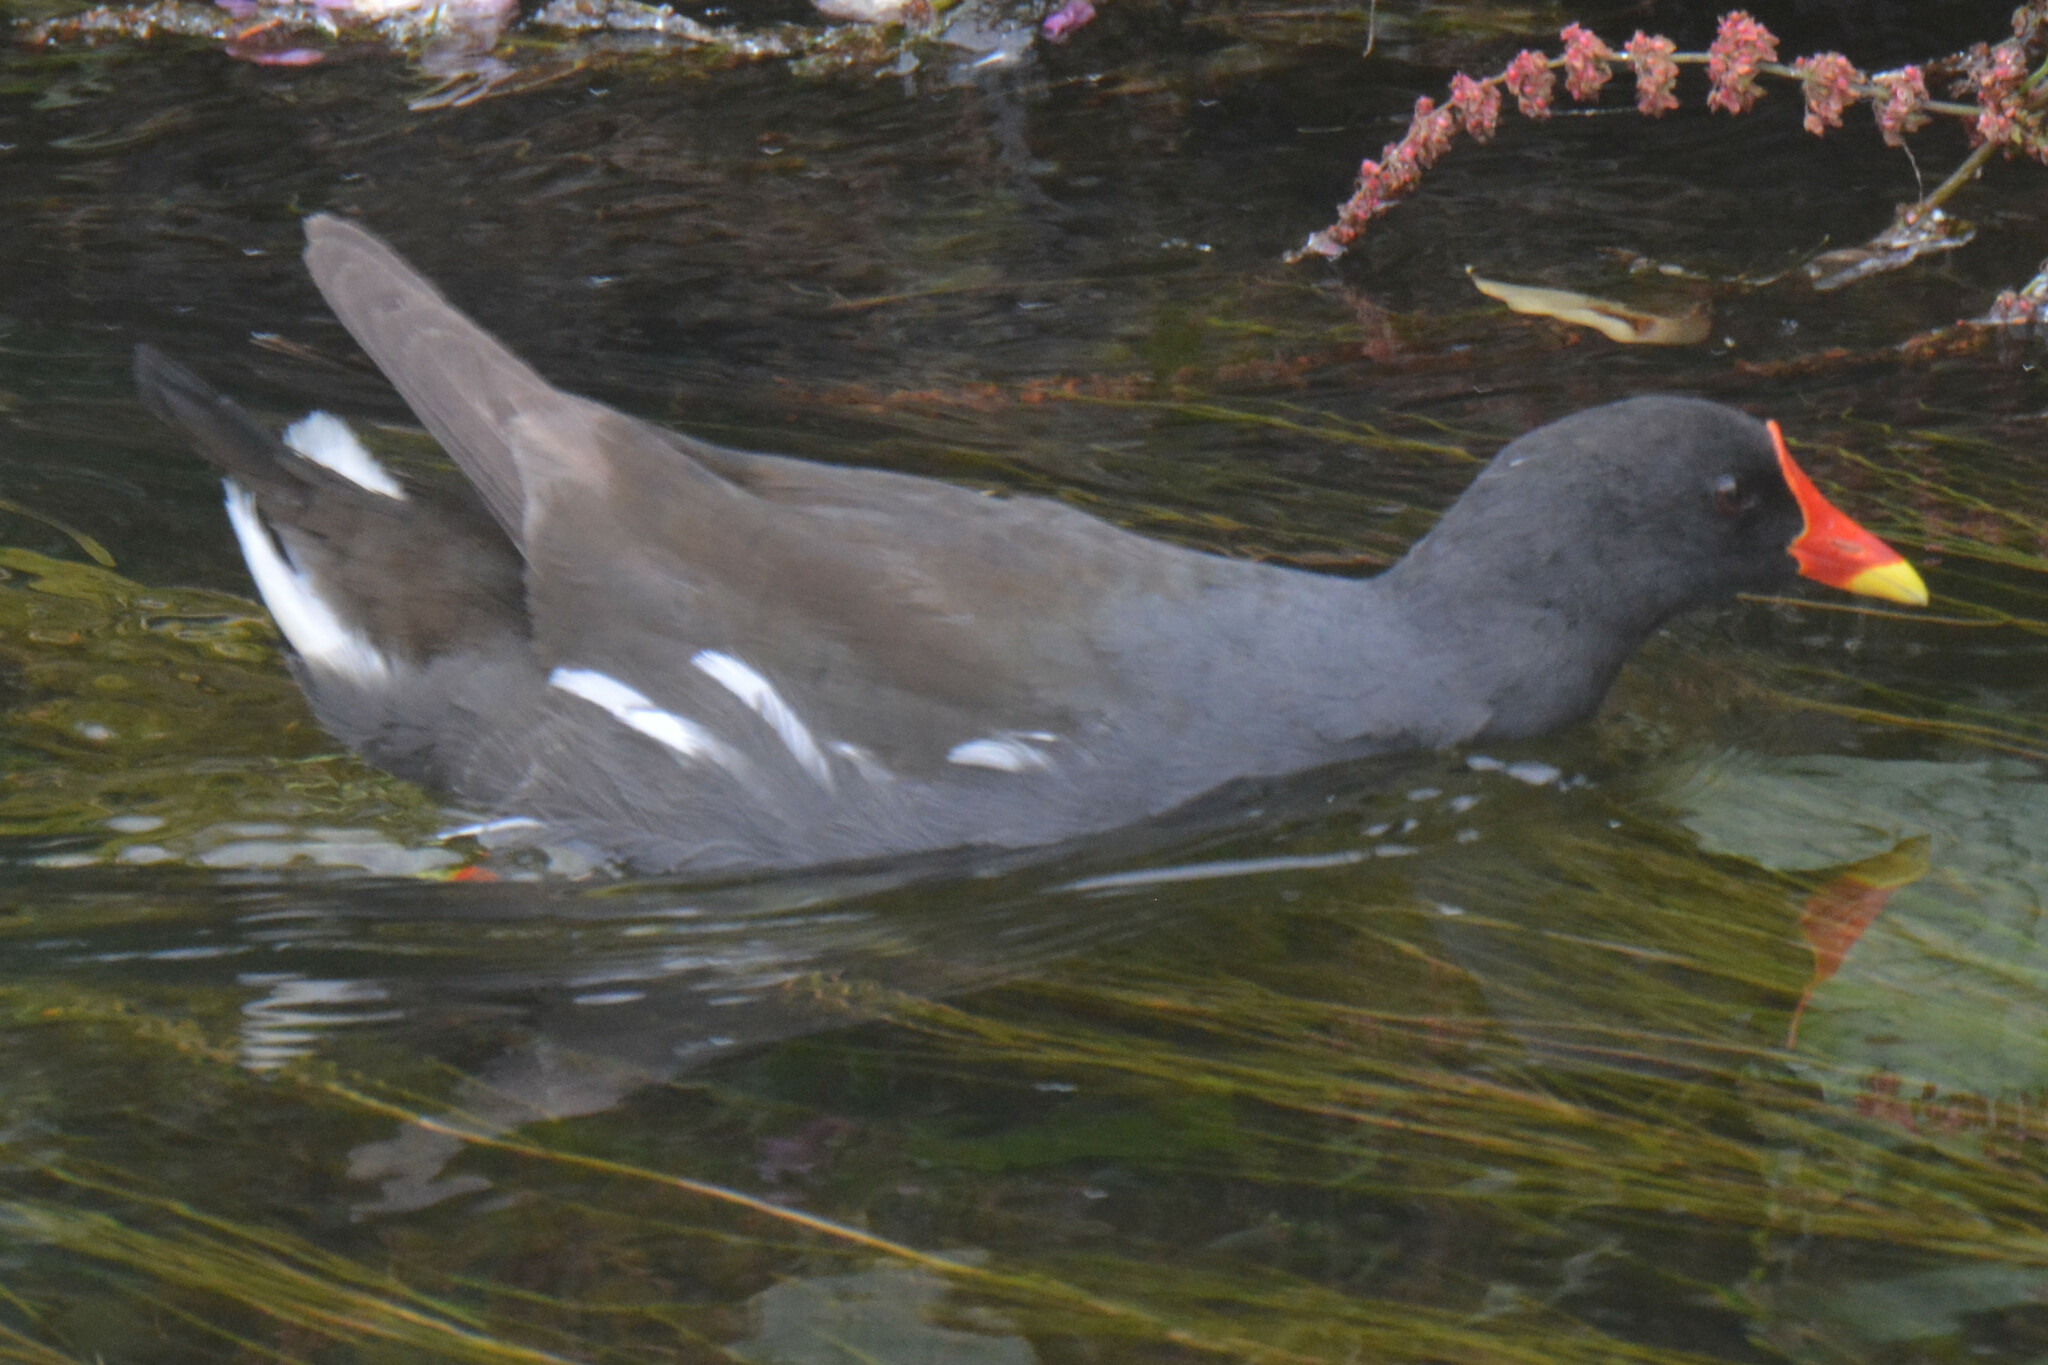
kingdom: Animalia
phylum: Chordata
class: Aves
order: Gruiformes
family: Rallidae
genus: Gallinula
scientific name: Gallinula chloropus
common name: Common moorhen
